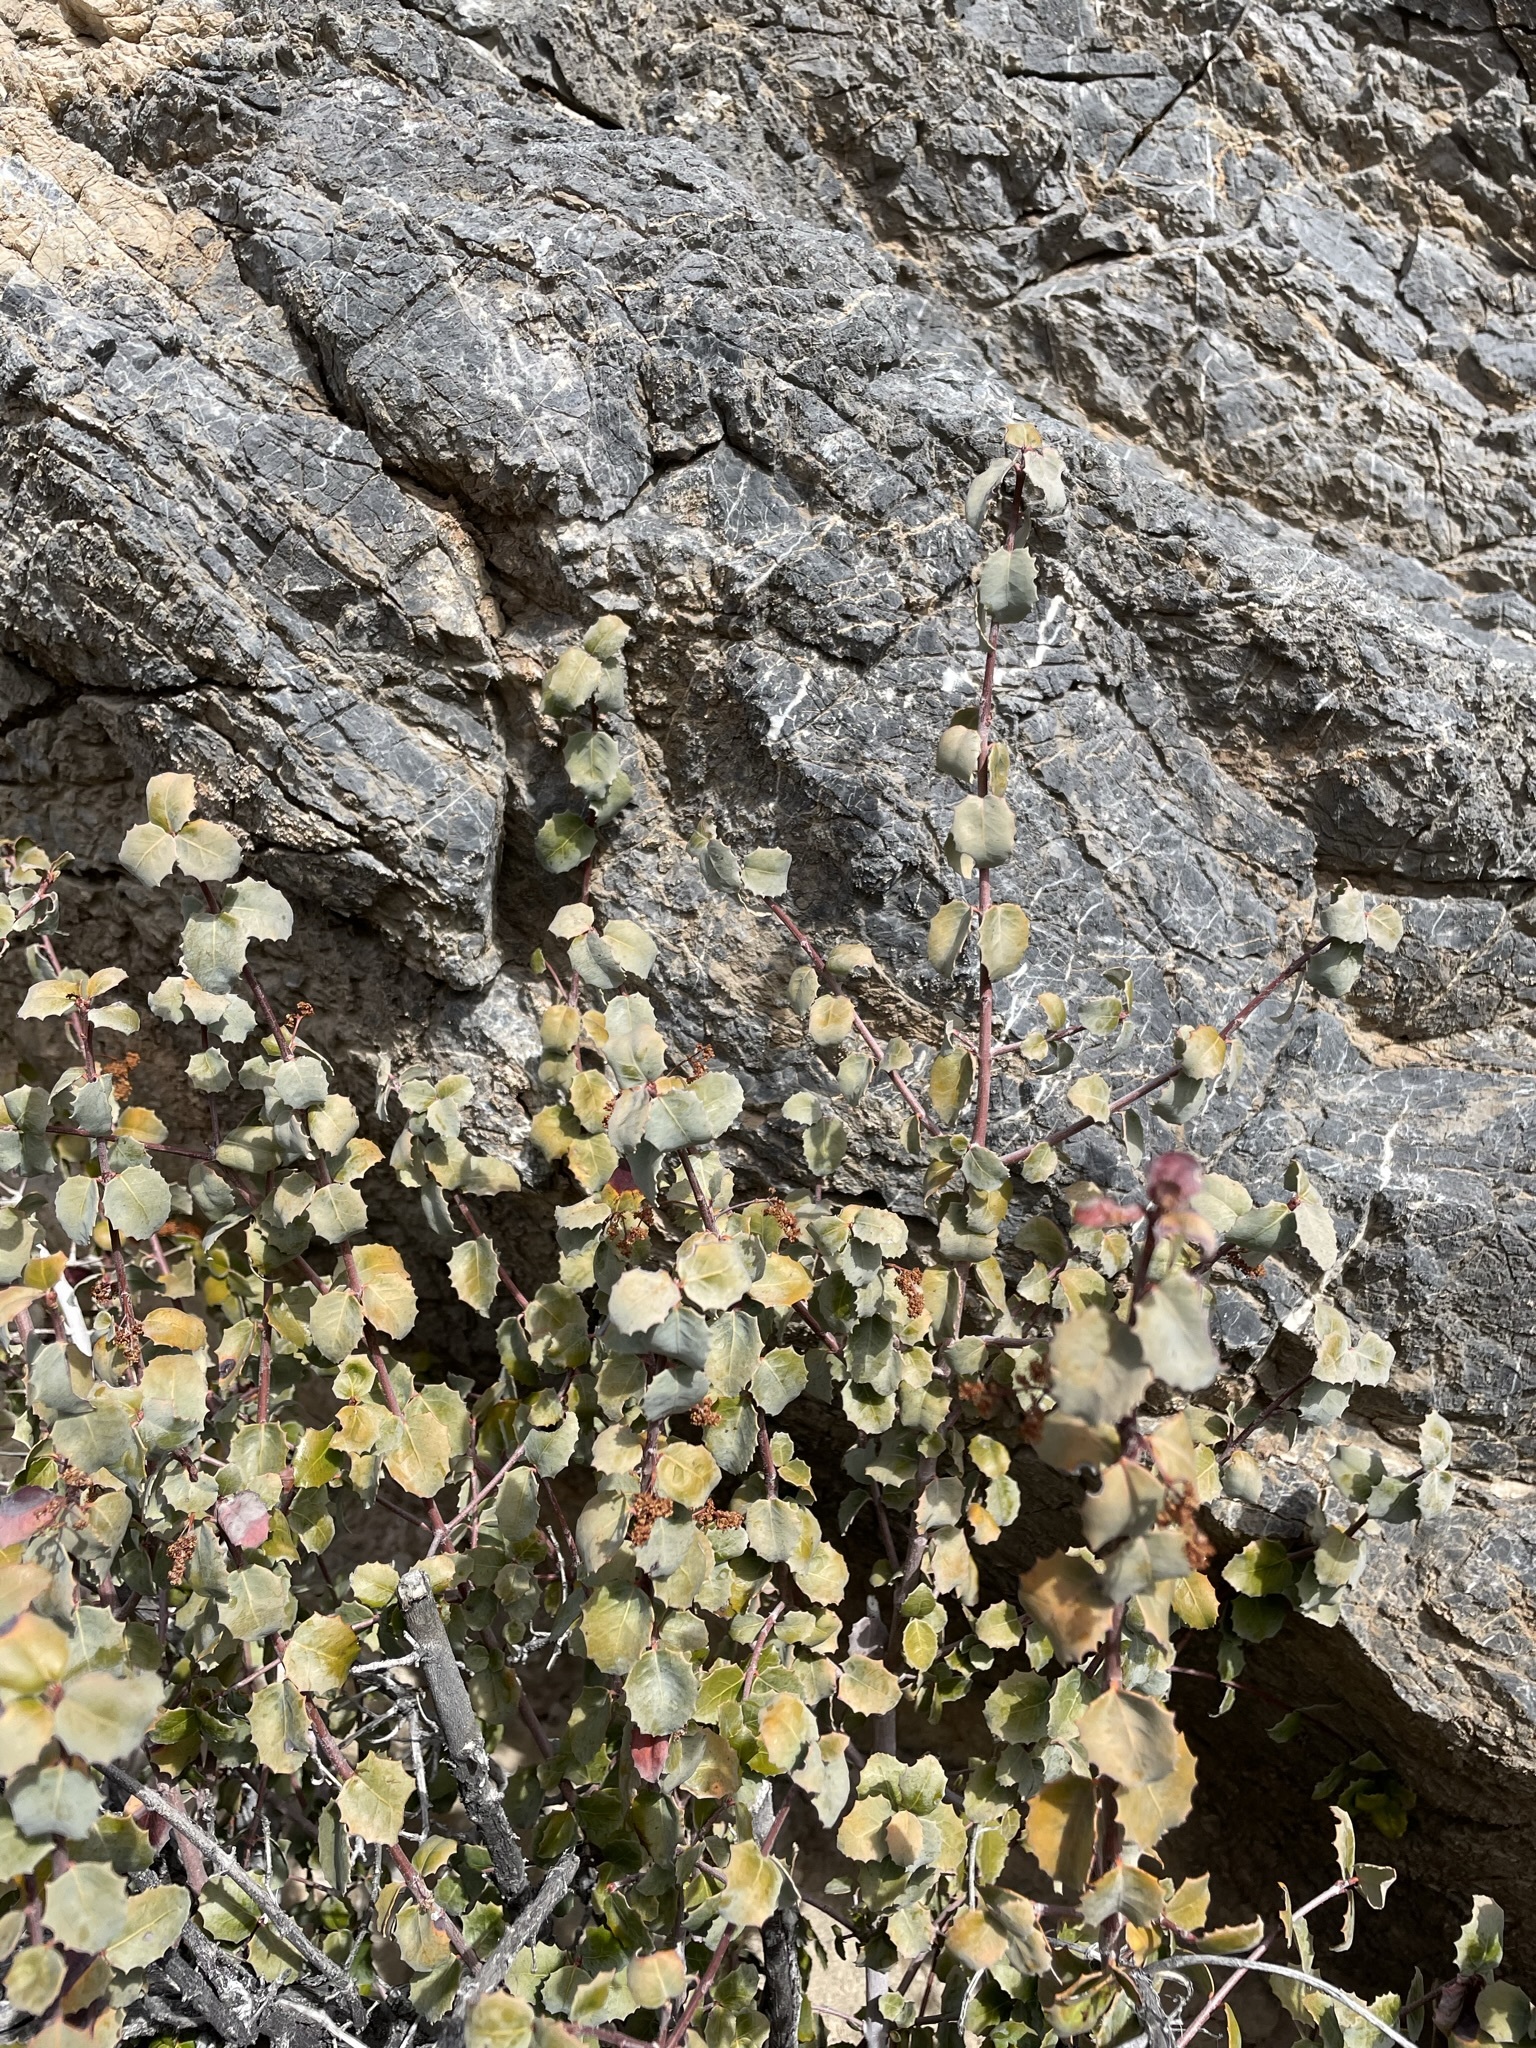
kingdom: Plantae
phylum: Tracheophyta
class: Magnoliopsida
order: Malpighiales
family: Picrodendraceae
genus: Tetracoccus
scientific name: Tetracoccus ilicifolius
